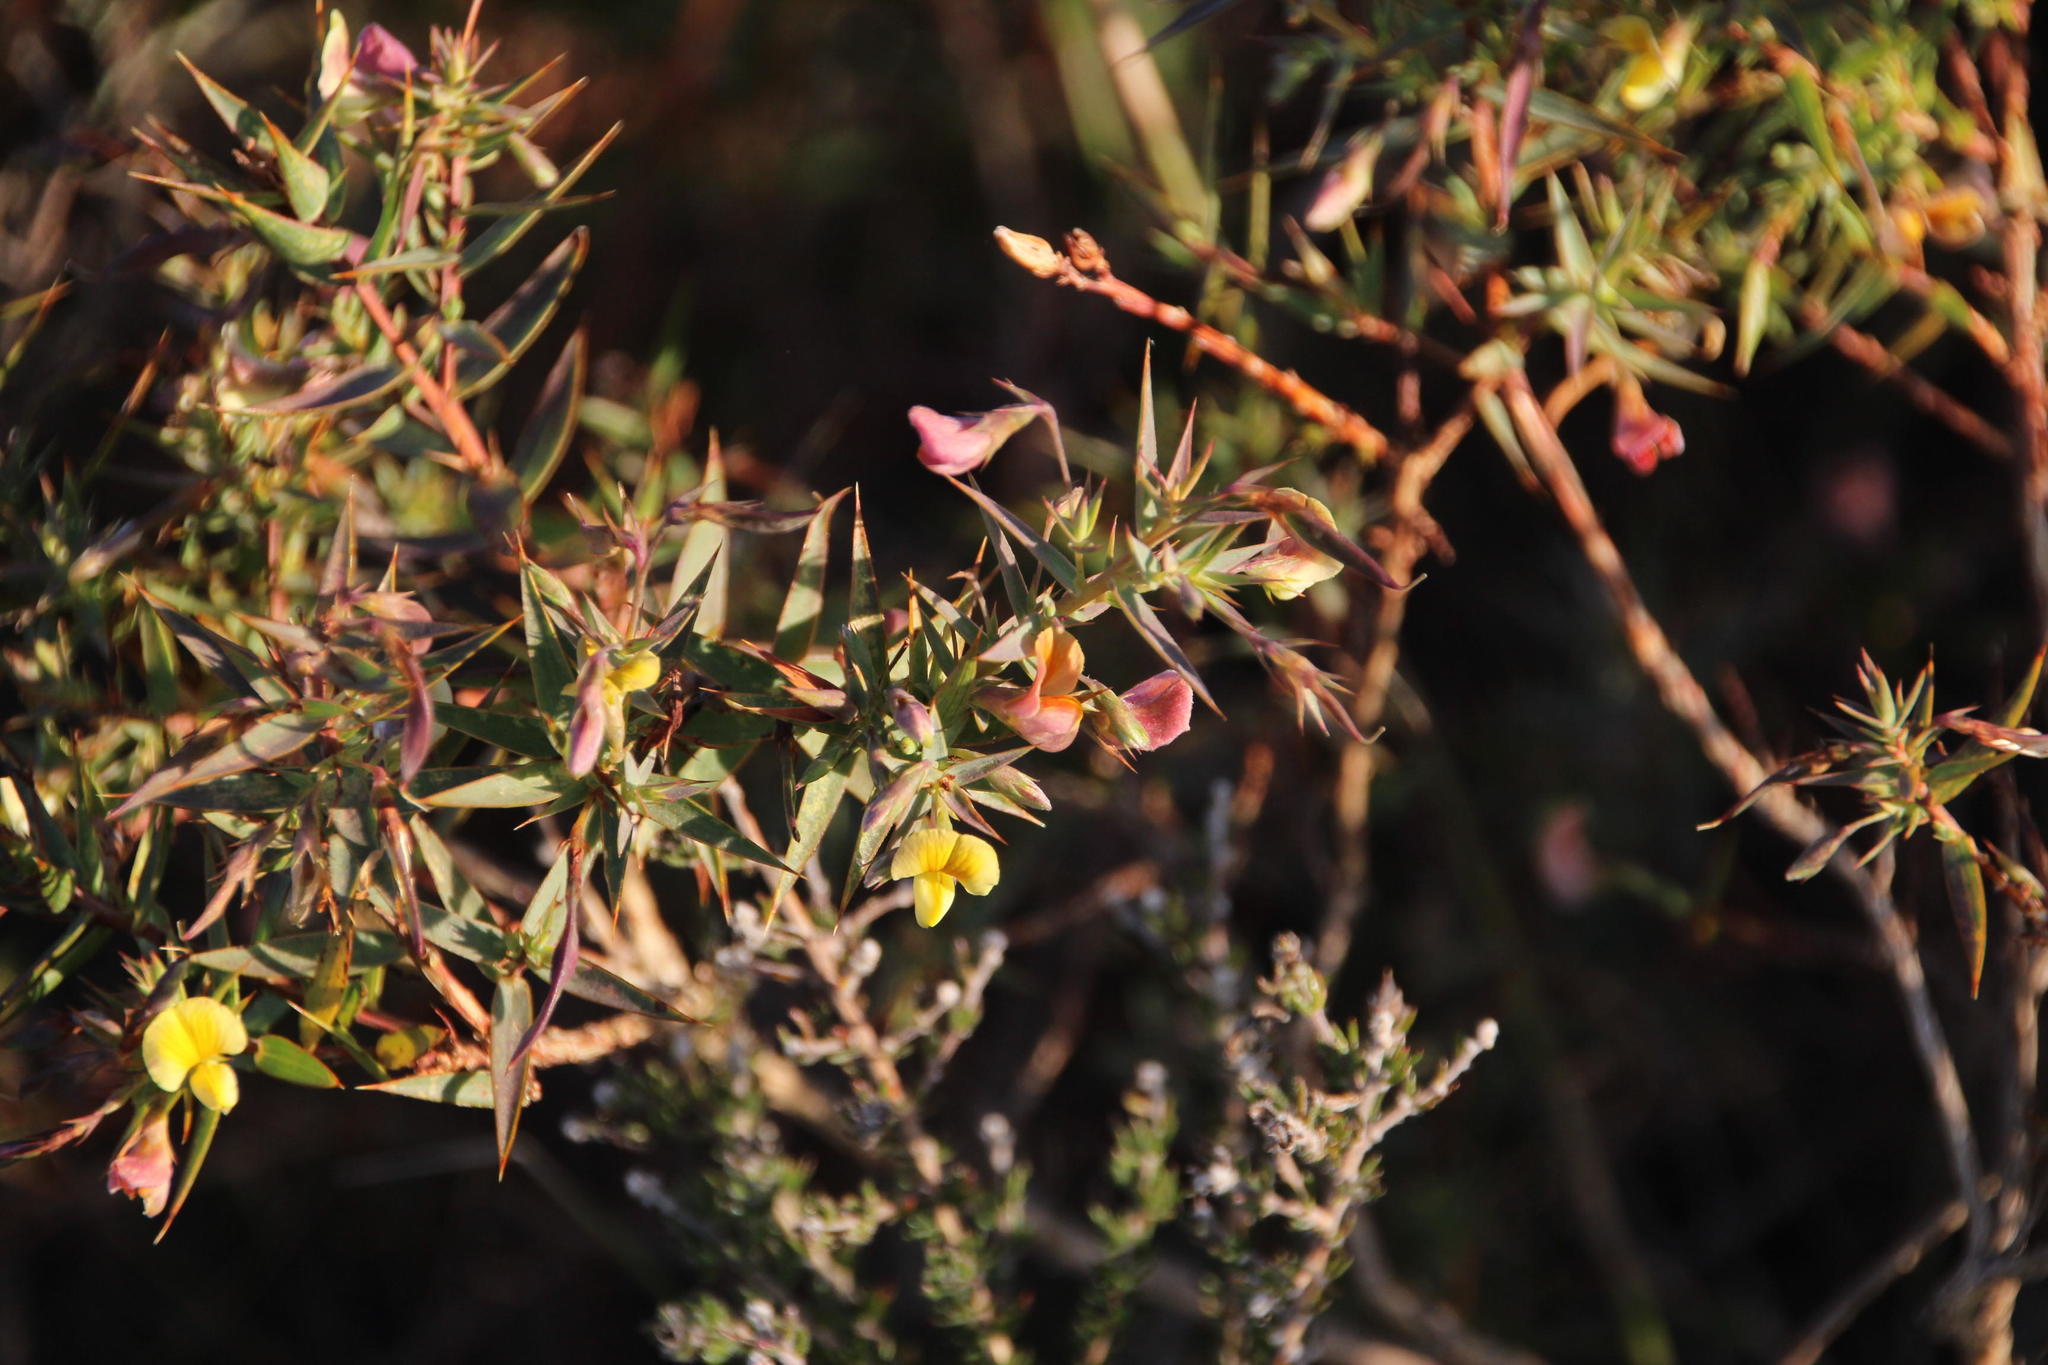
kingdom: Plantae
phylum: Tracheophyta
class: Magnoliopsida
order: Fabales
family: Fabaceae
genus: Aspalathus
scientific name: Aspalathus alpestris
